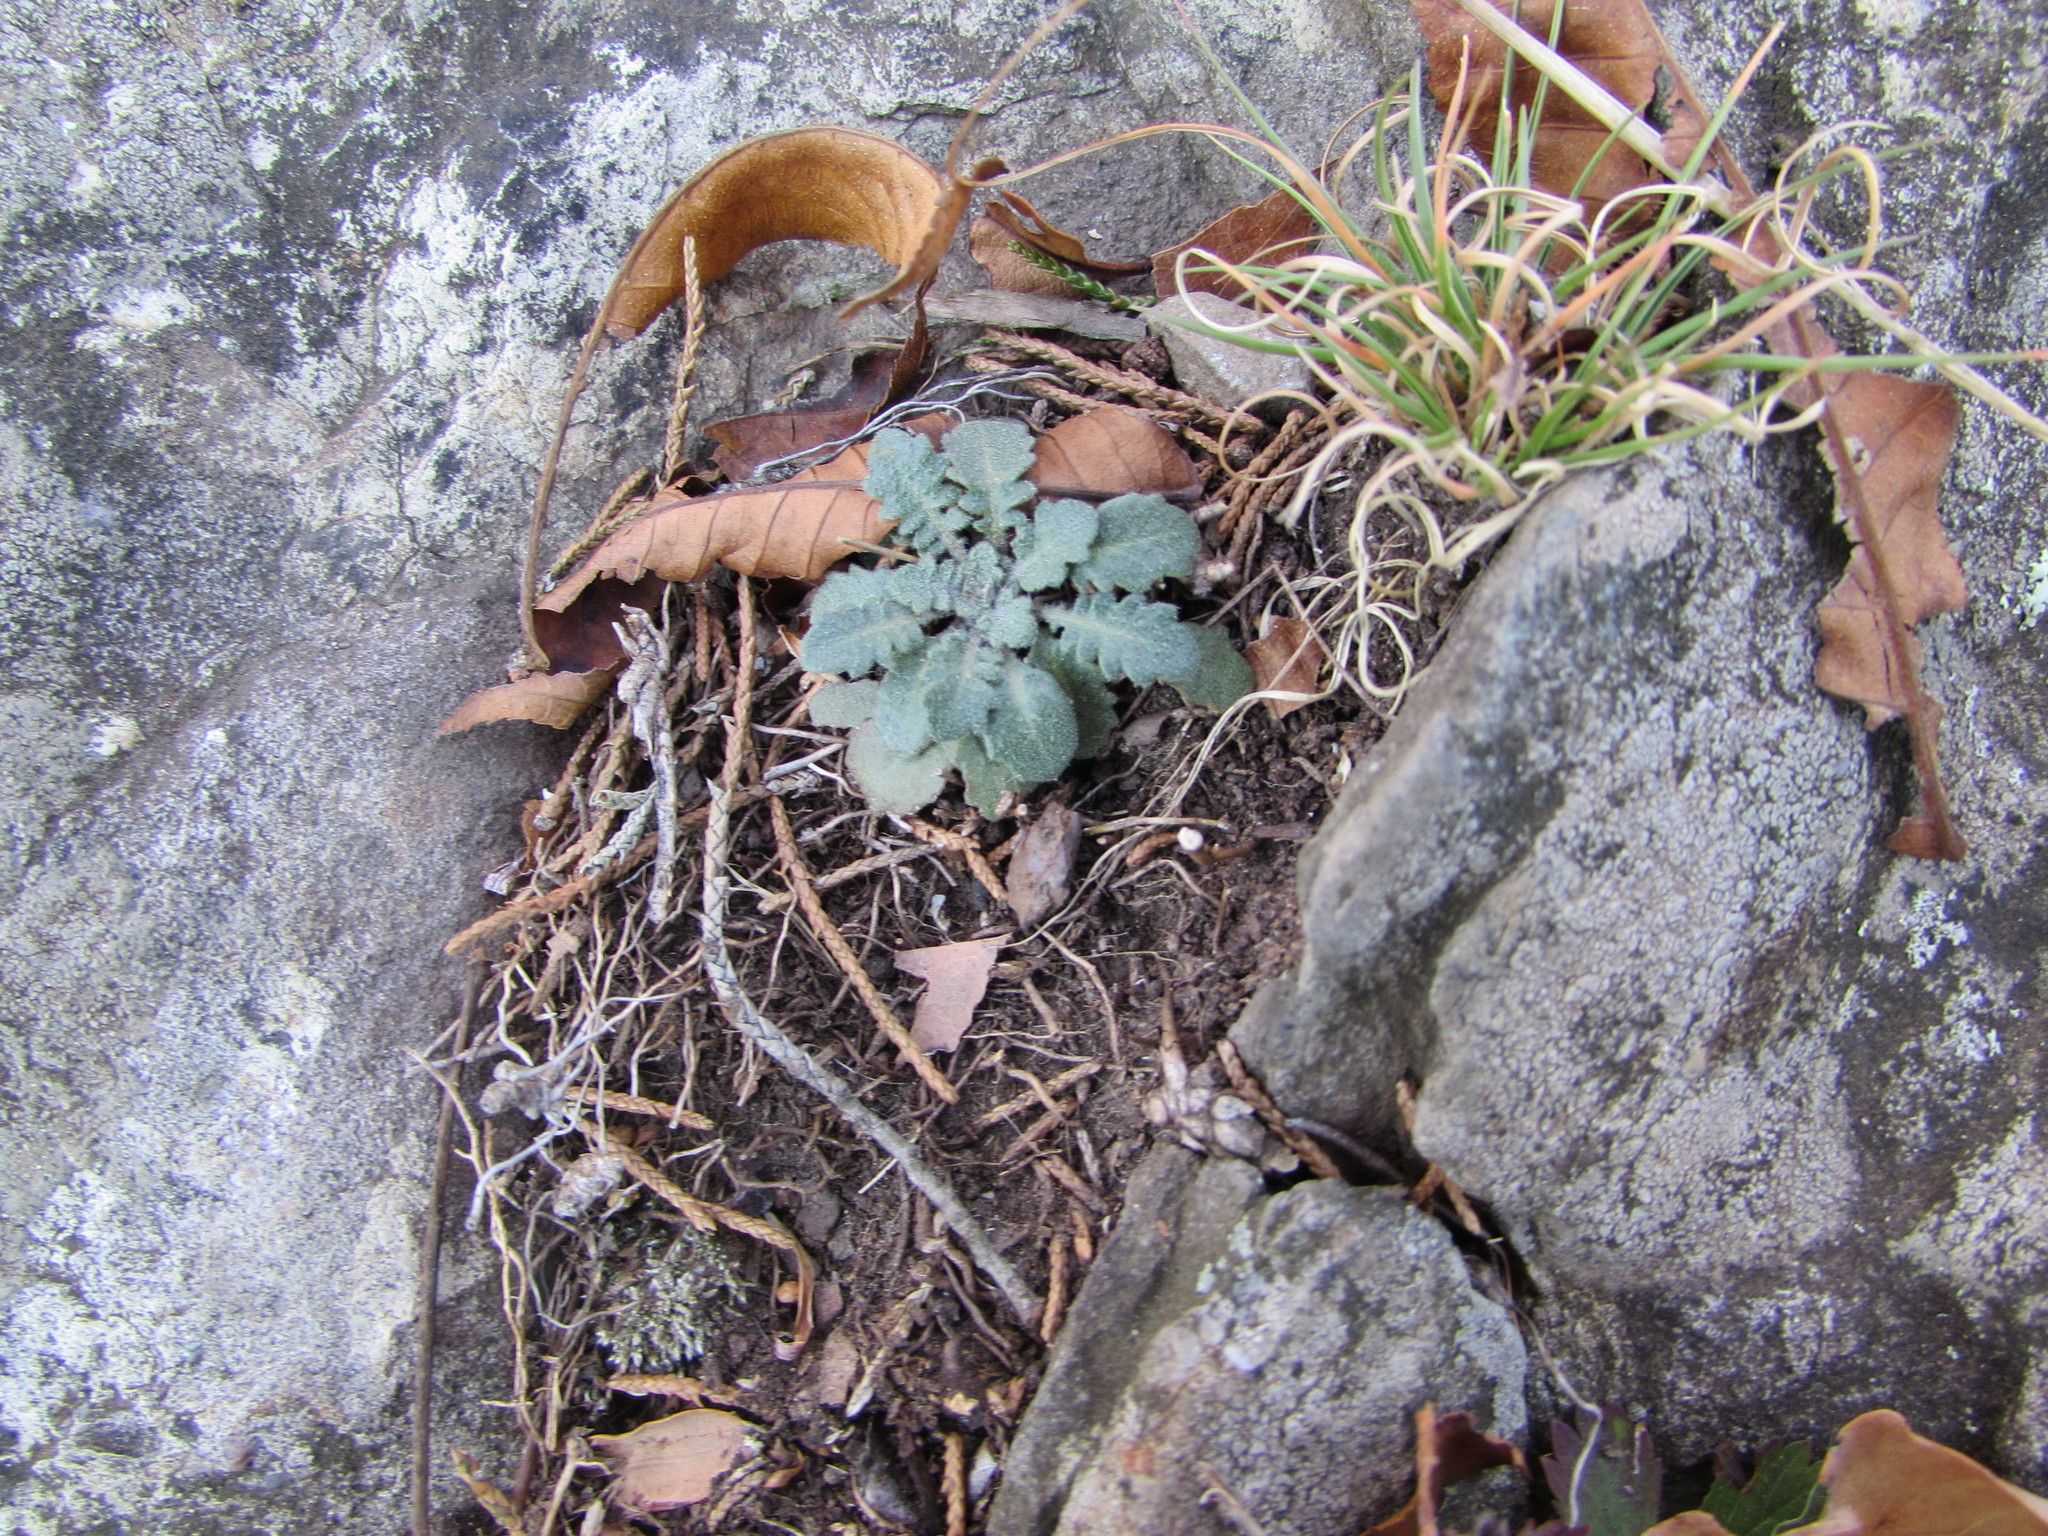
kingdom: Plantae
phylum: Tracheophyta
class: Magnoliopsida
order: Brassicales
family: Brassicaceae
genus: Arabidopsis
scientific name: Arabidopsis lyrata
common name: Lyrate rockcress
